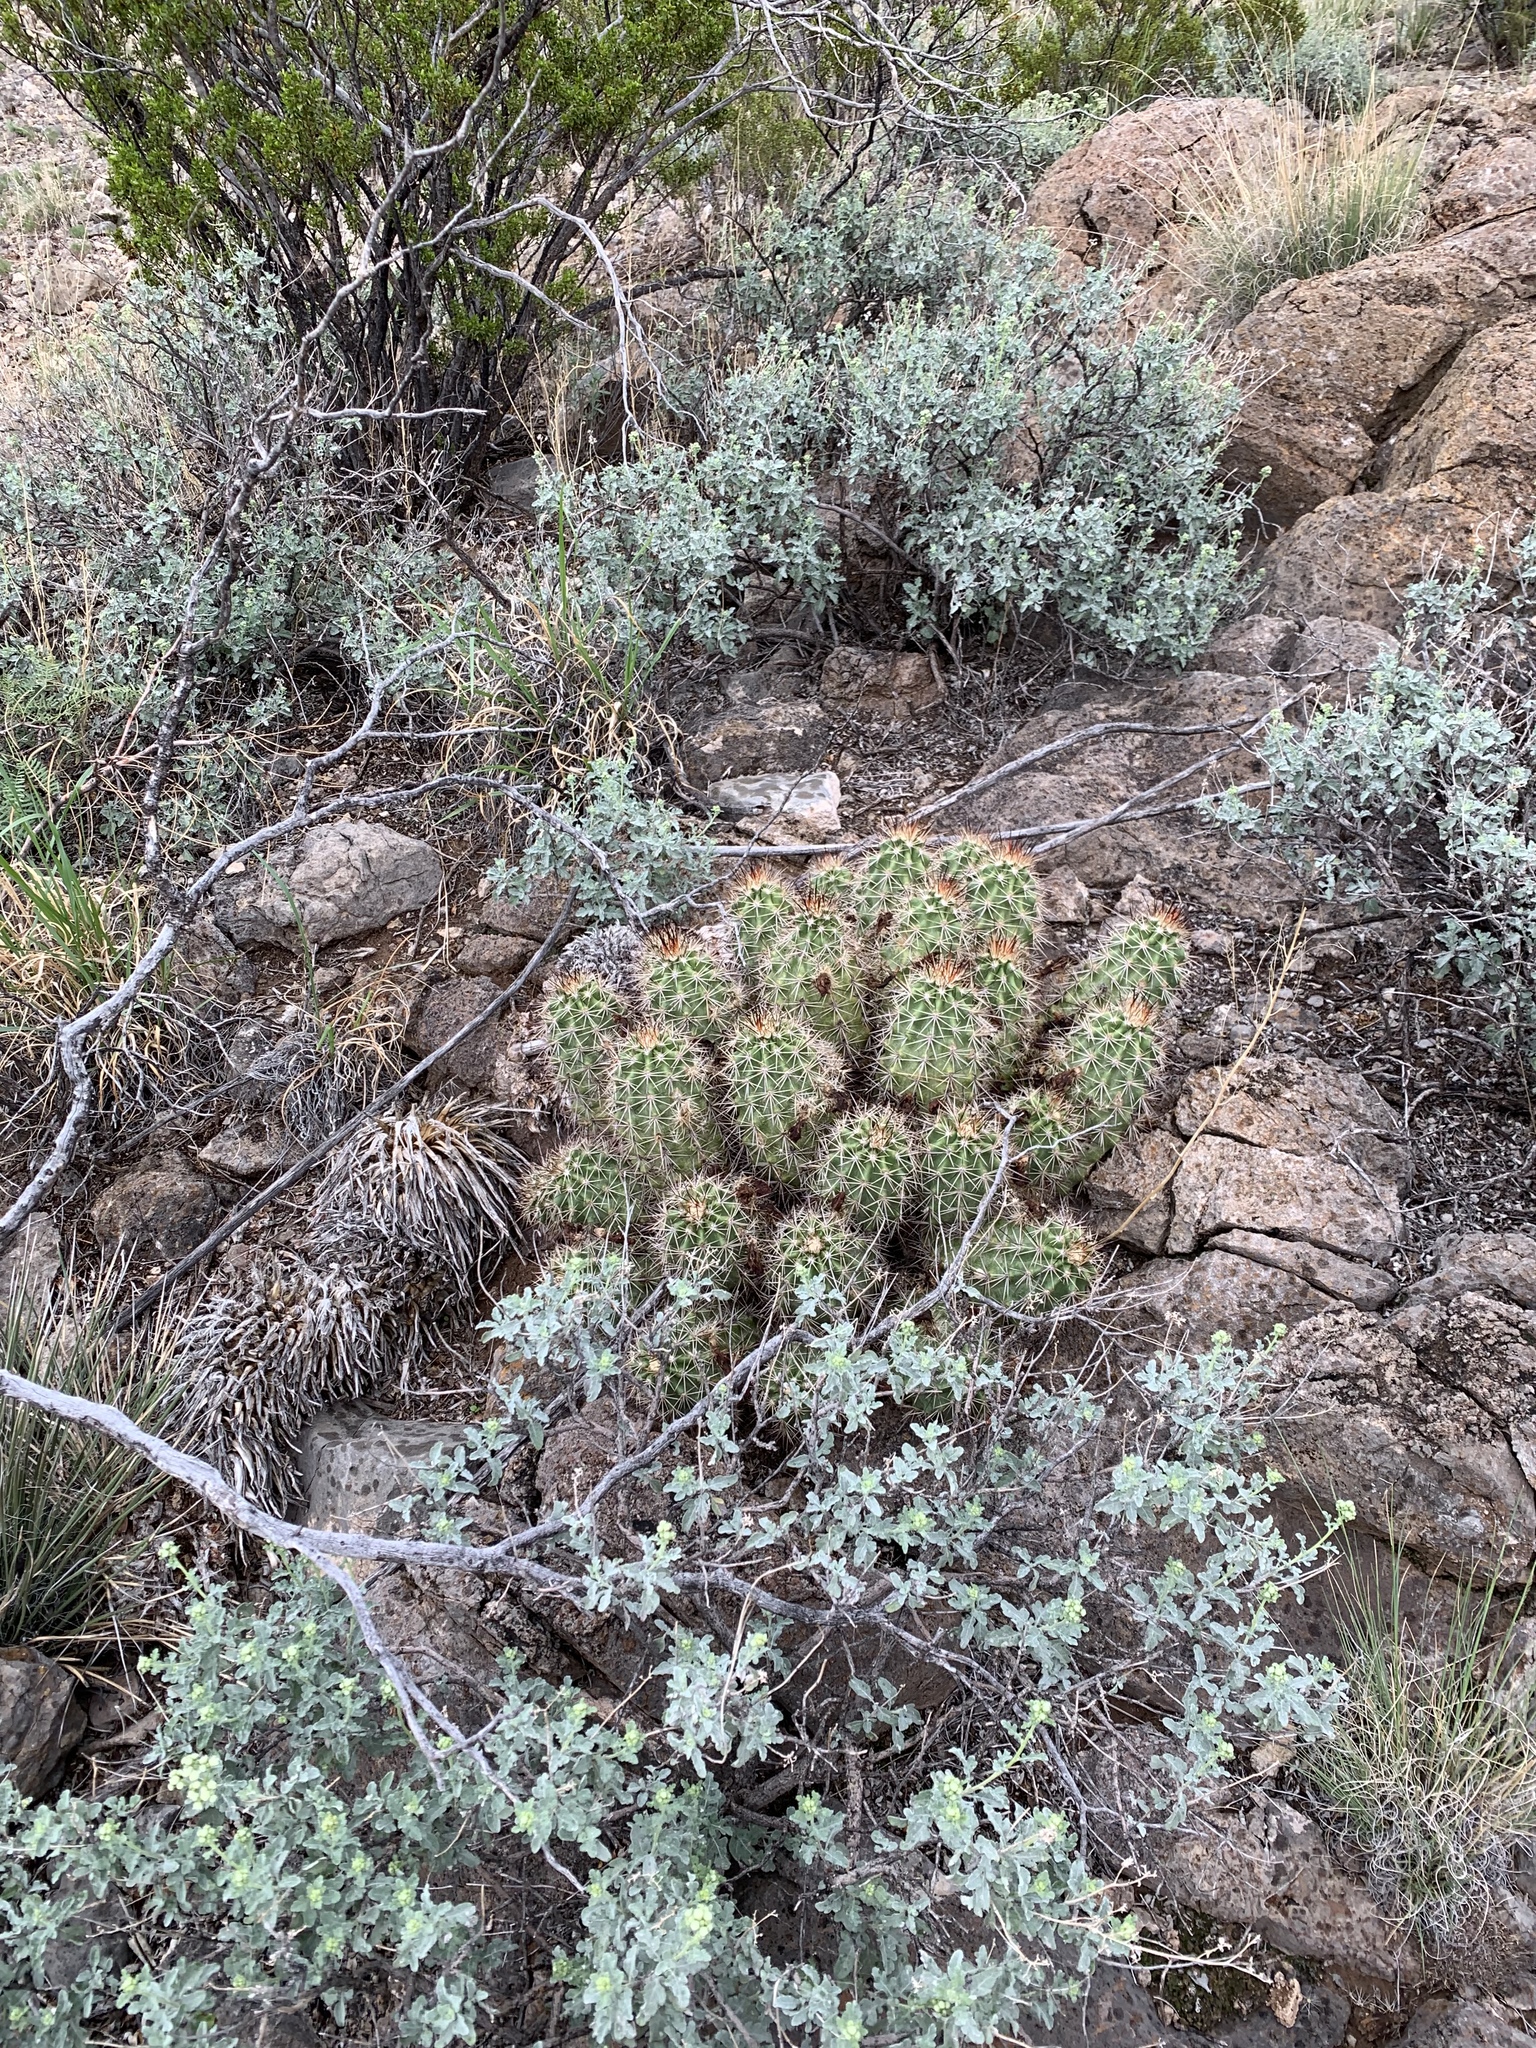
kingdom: Plantae
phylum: Tracheophyta
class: Magnoliopsida
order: Caryophyllales
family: Cactaceae
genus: Echinocereus
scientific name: Echinocereus coccineus
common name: Scarlet hedgehog cactus
